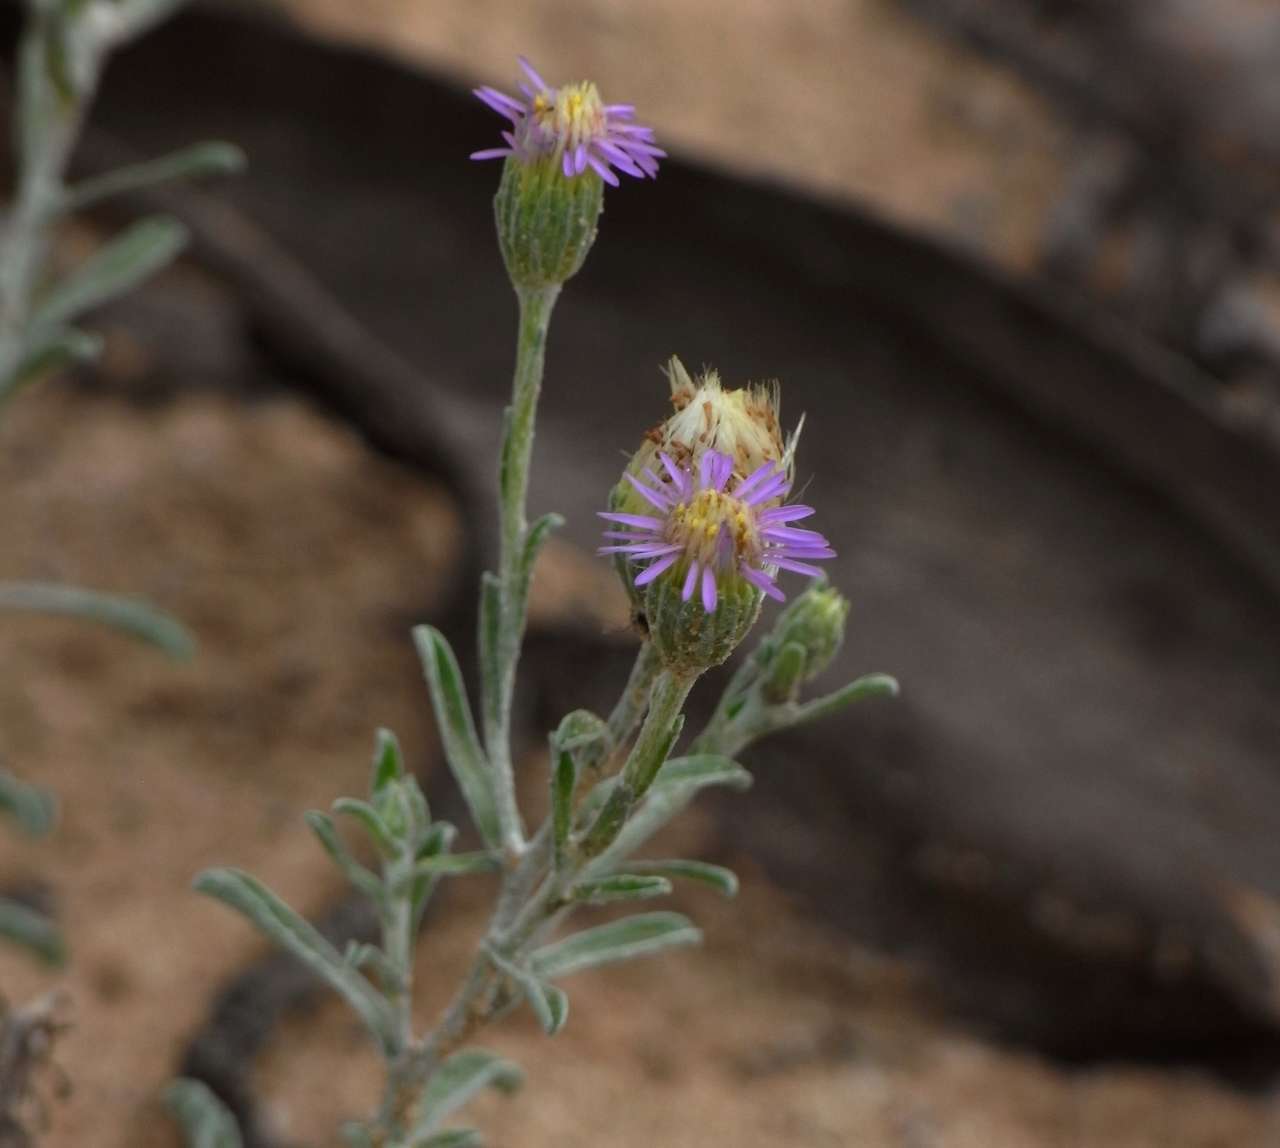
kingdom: Plantae
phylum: Tracheophyta
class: Magnoliopsida
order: Asterales
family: Asteraceae
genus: Vittadinia
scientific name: Vittadinia gracilis
